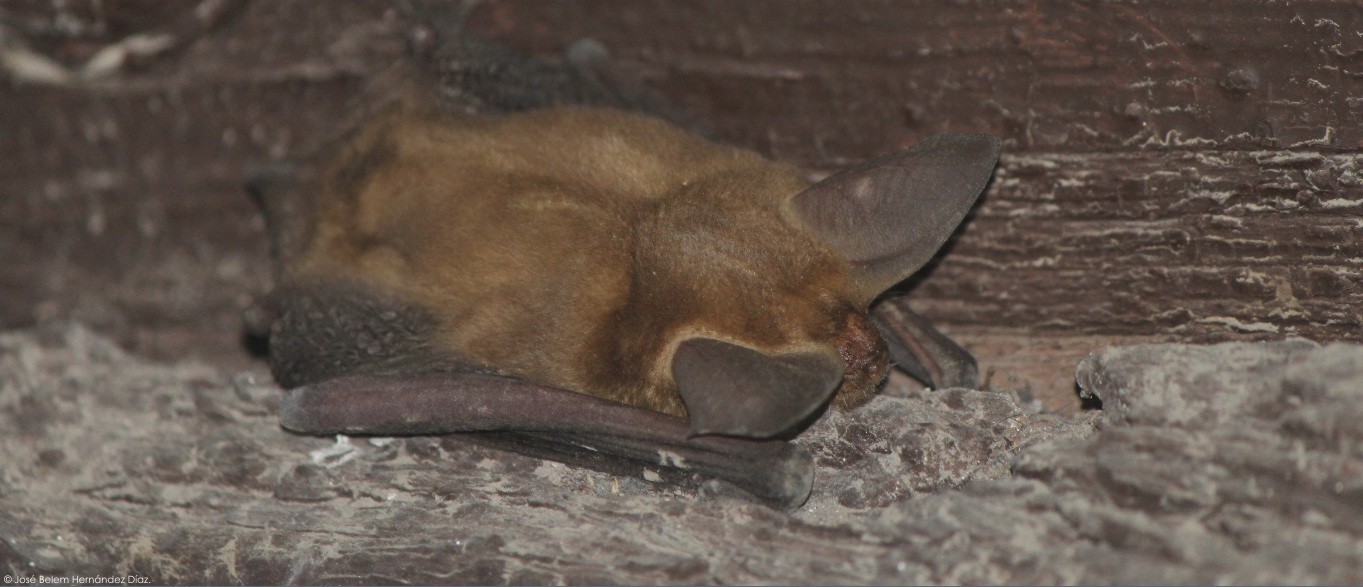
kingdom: Animalia
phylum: Chordata
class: Mammalia
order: Chiroptera
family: Vespertilionidae
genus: Antrozous
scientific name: Antrozous pallidus
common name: Pallid bat
